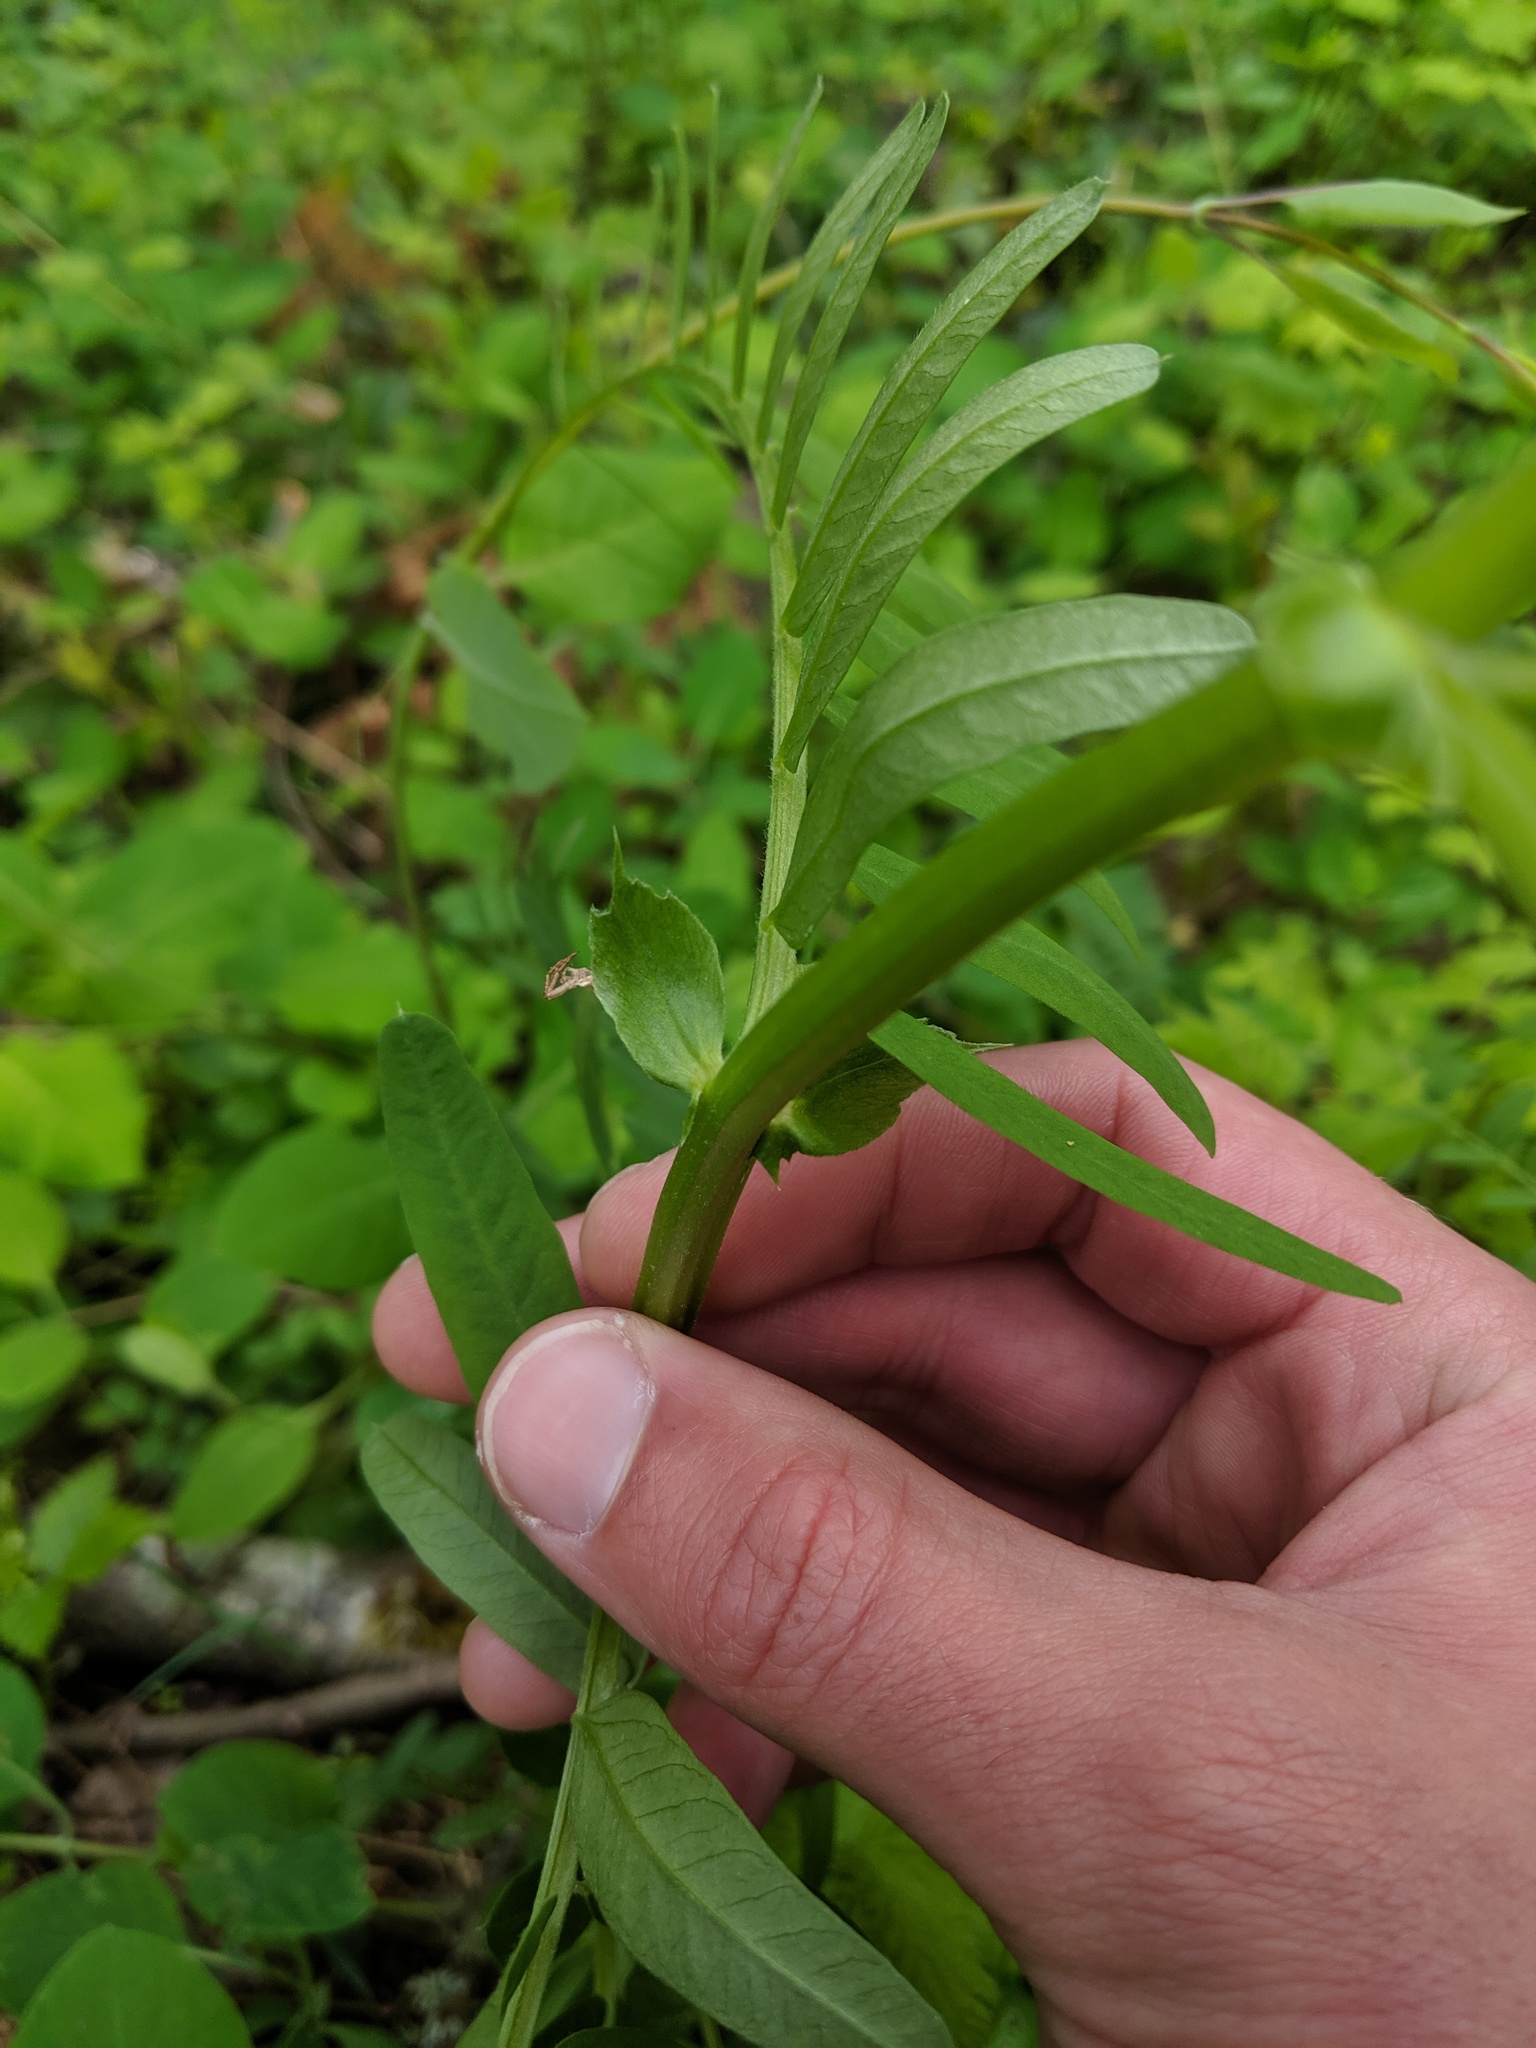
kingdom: Plantae
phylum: Tracheophyta
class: Magnoliopsida
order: Fabales
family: Fabaceae
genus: Vicia
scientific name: Vicia
